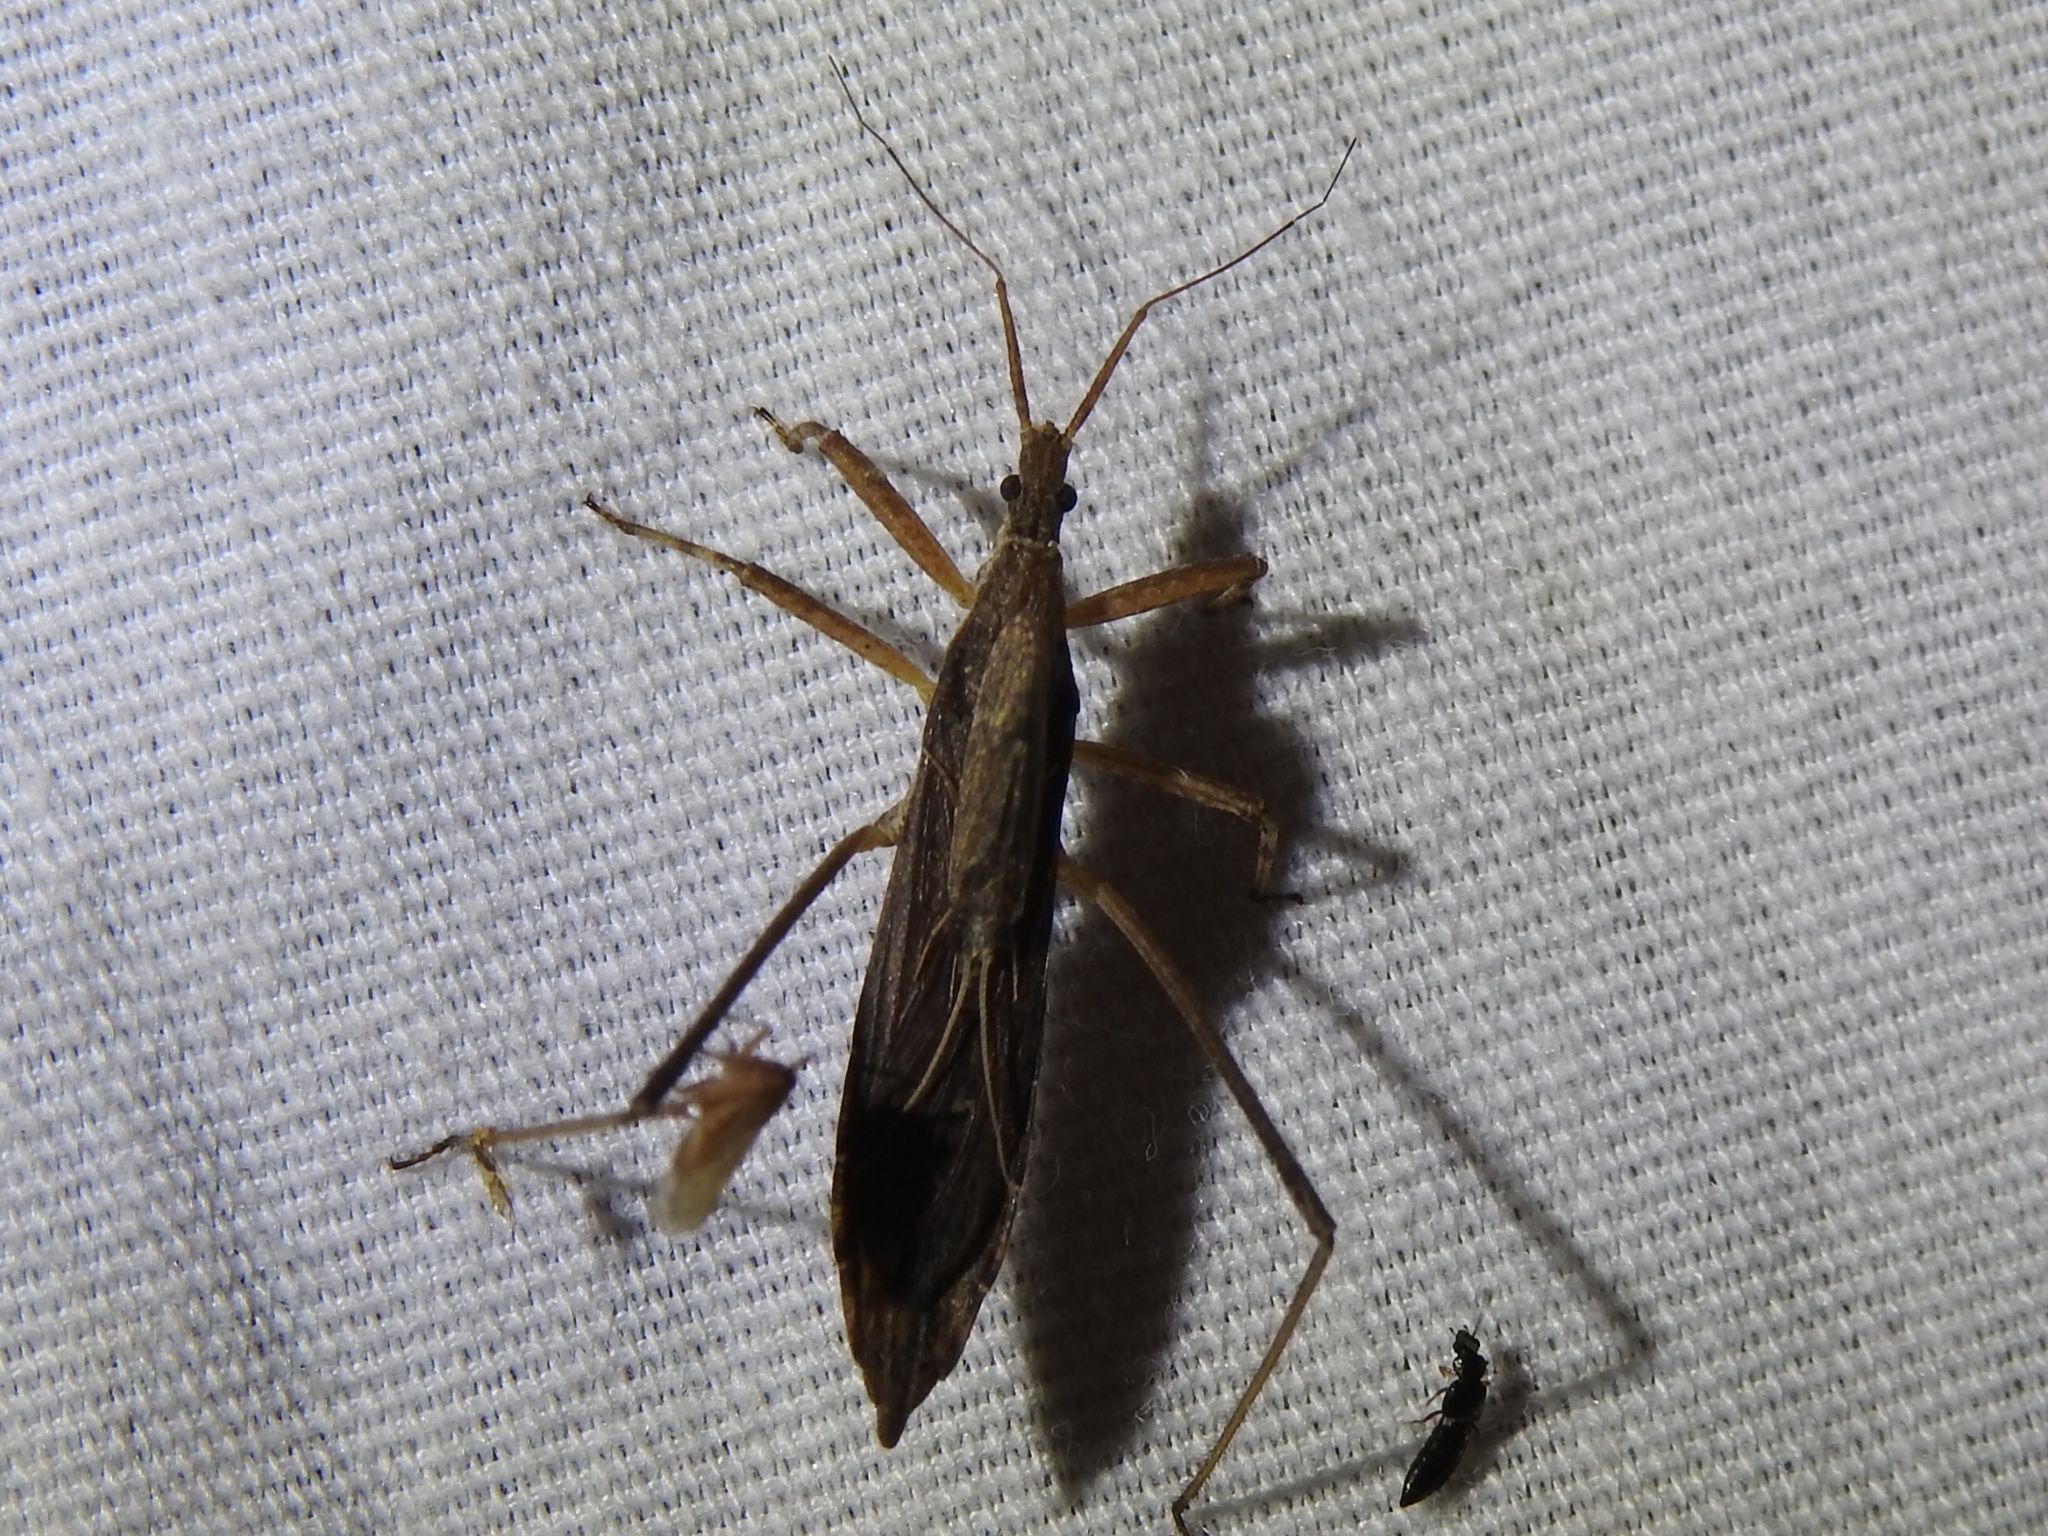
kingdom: Animalia
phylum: Arthropoda
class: Insecta
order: Hemiptera
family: Reduviidae
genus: Pygolampis
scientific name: Pygolampis pectoralis
